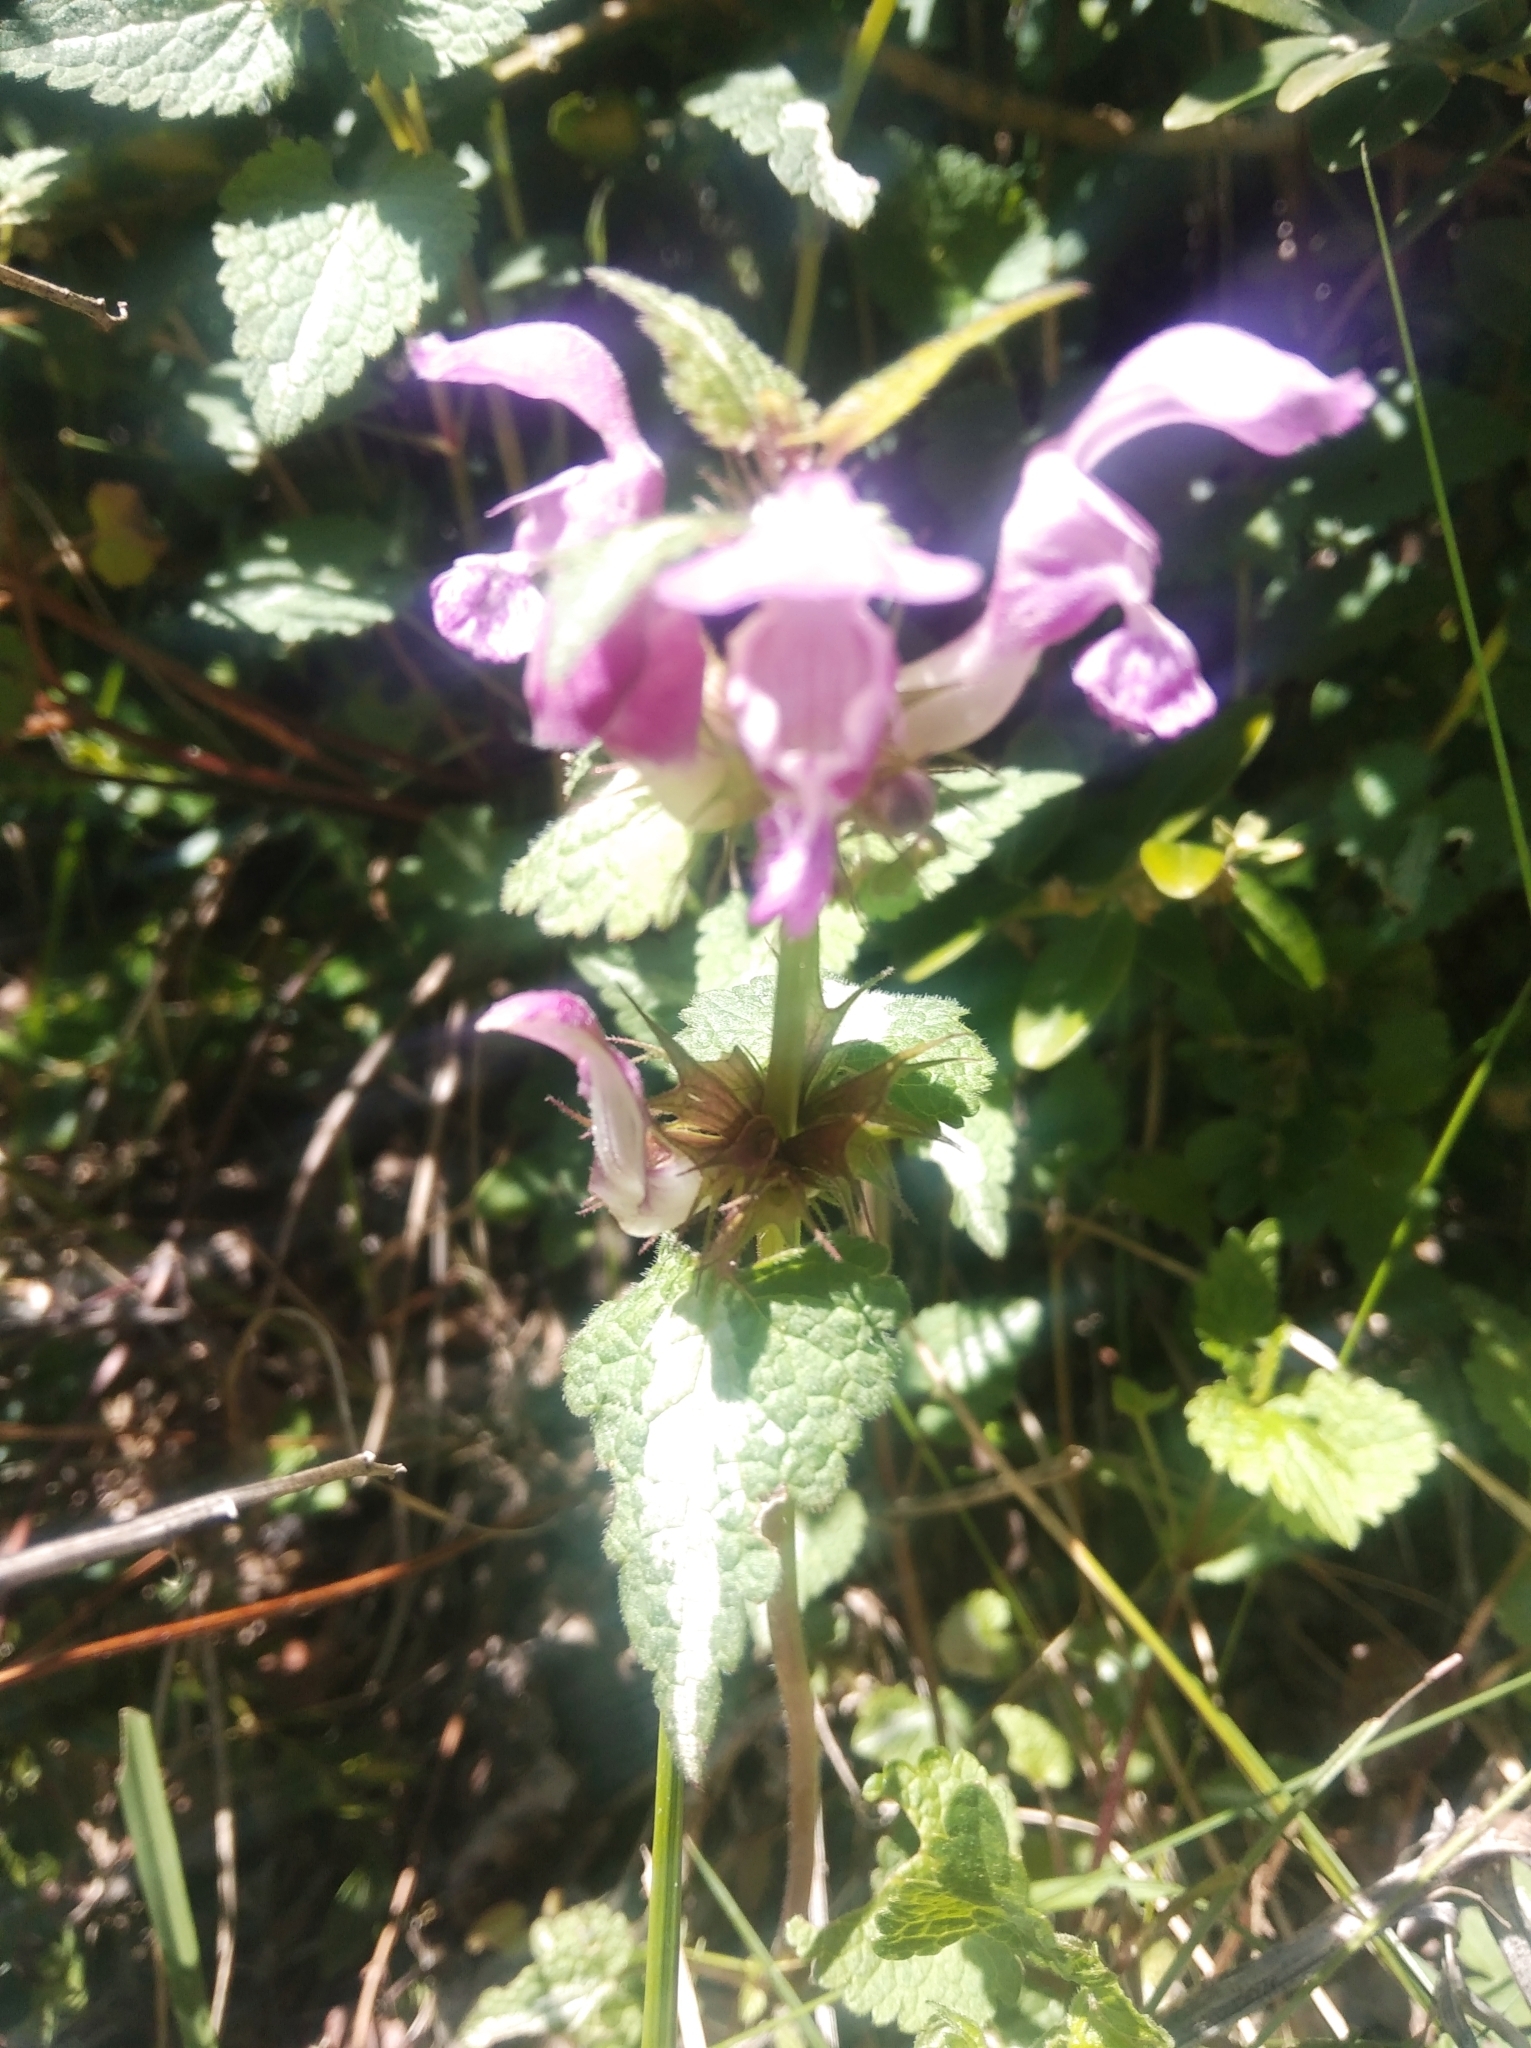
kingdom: Plantae
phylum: Tracheophyta
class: Magnoliopsida
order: Lamiales
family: Lamiaceae
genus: Lamium
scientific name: Lamium maculatum
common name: Spotted dead-nettle
